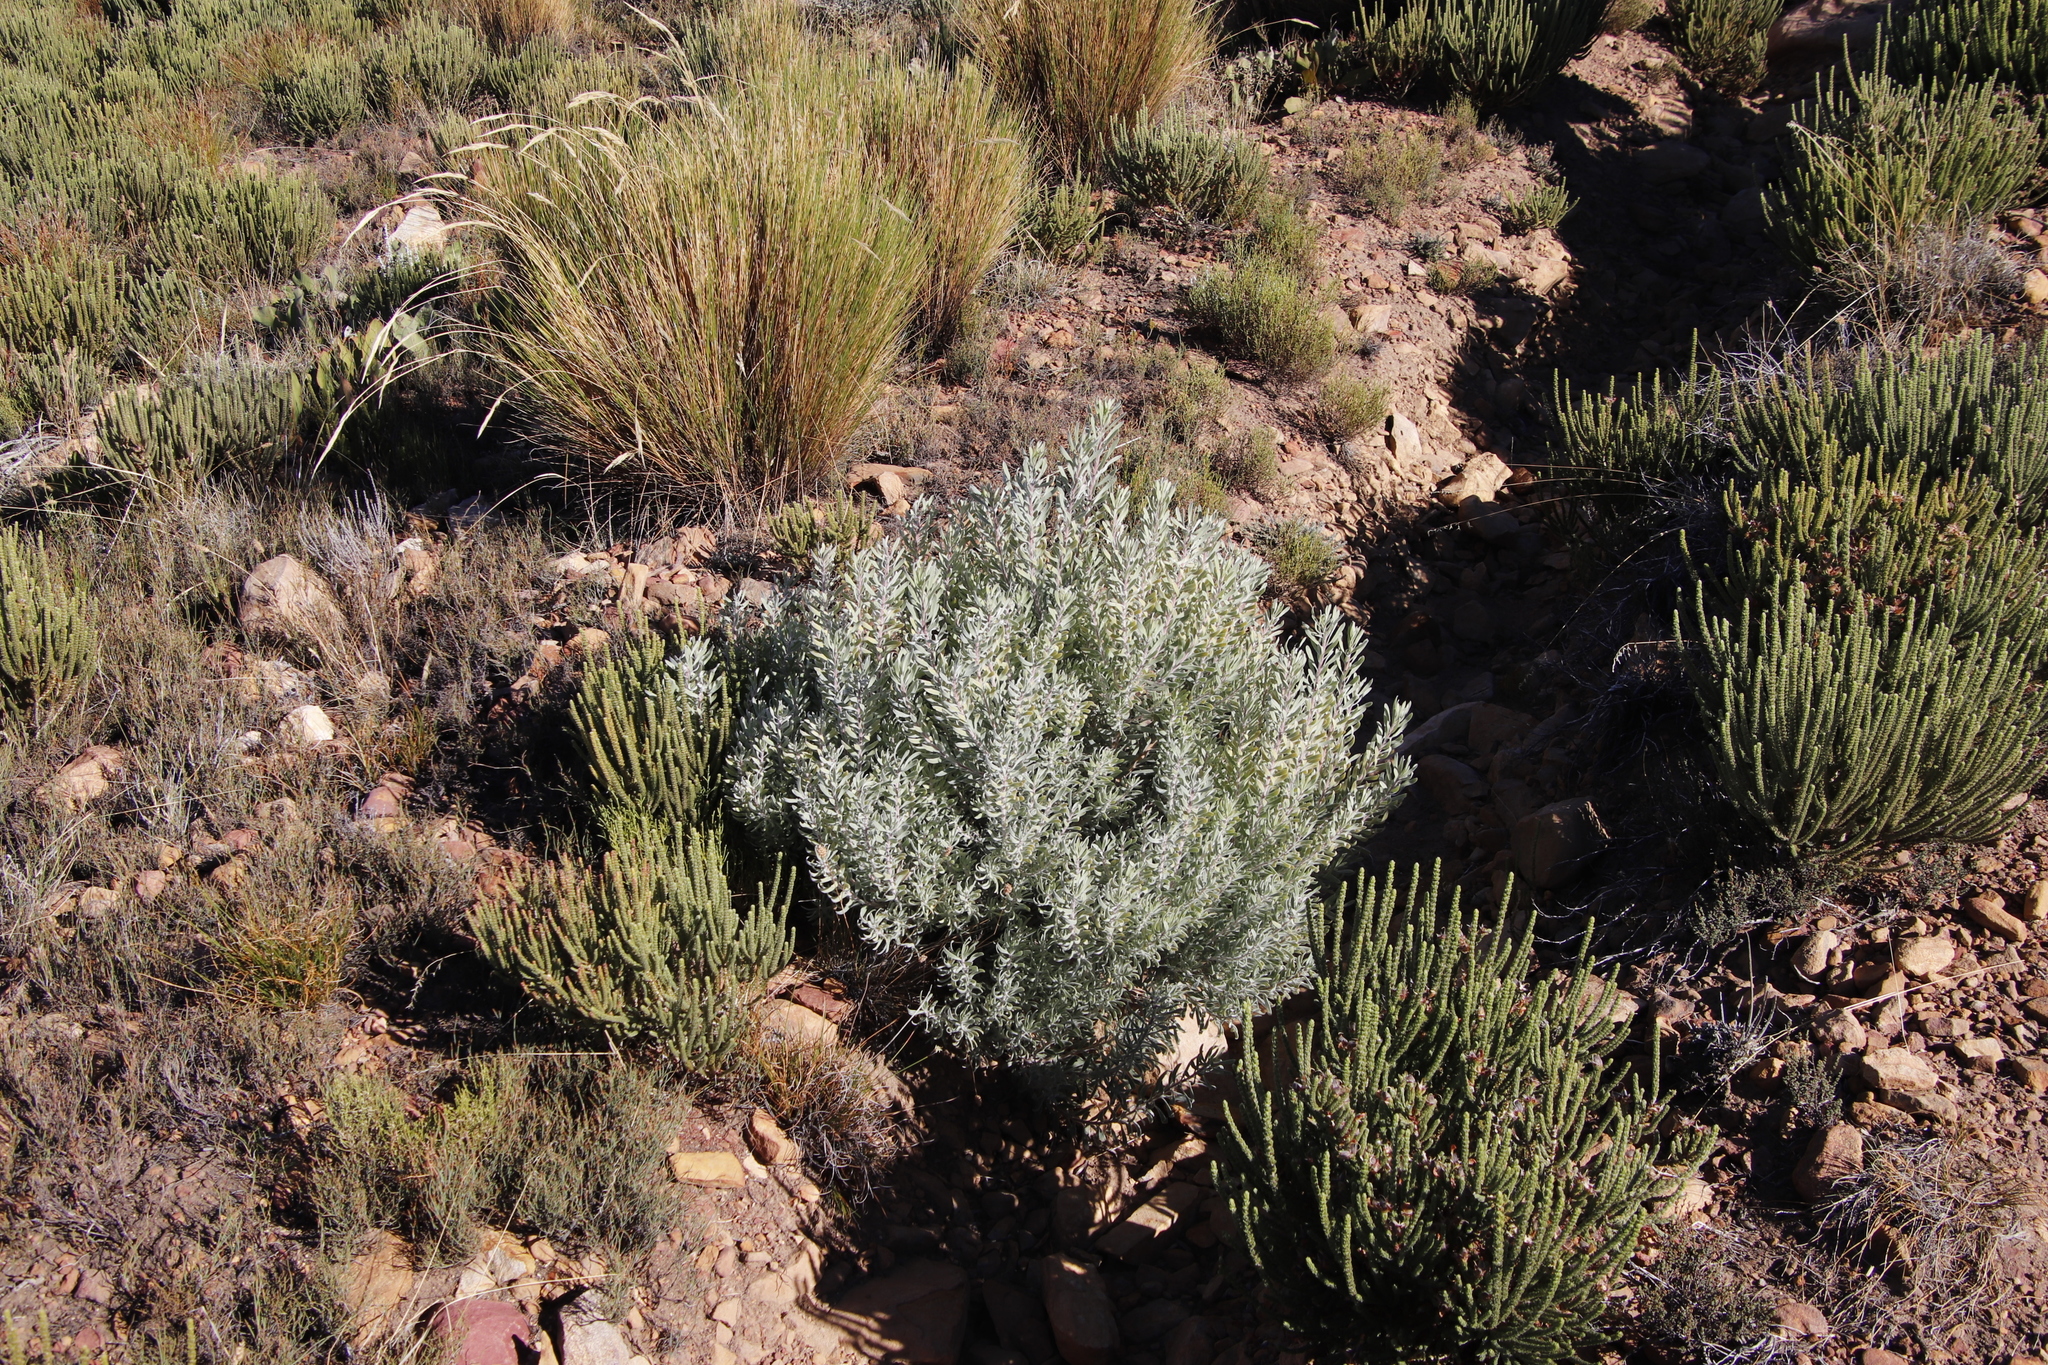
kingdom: Plantae
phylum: Tracheophyta
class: Magnoliopsida
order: Proteales
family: Proteaceae
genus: Leucadendron
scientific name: Leucadendron rubrum
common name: Spinning top
